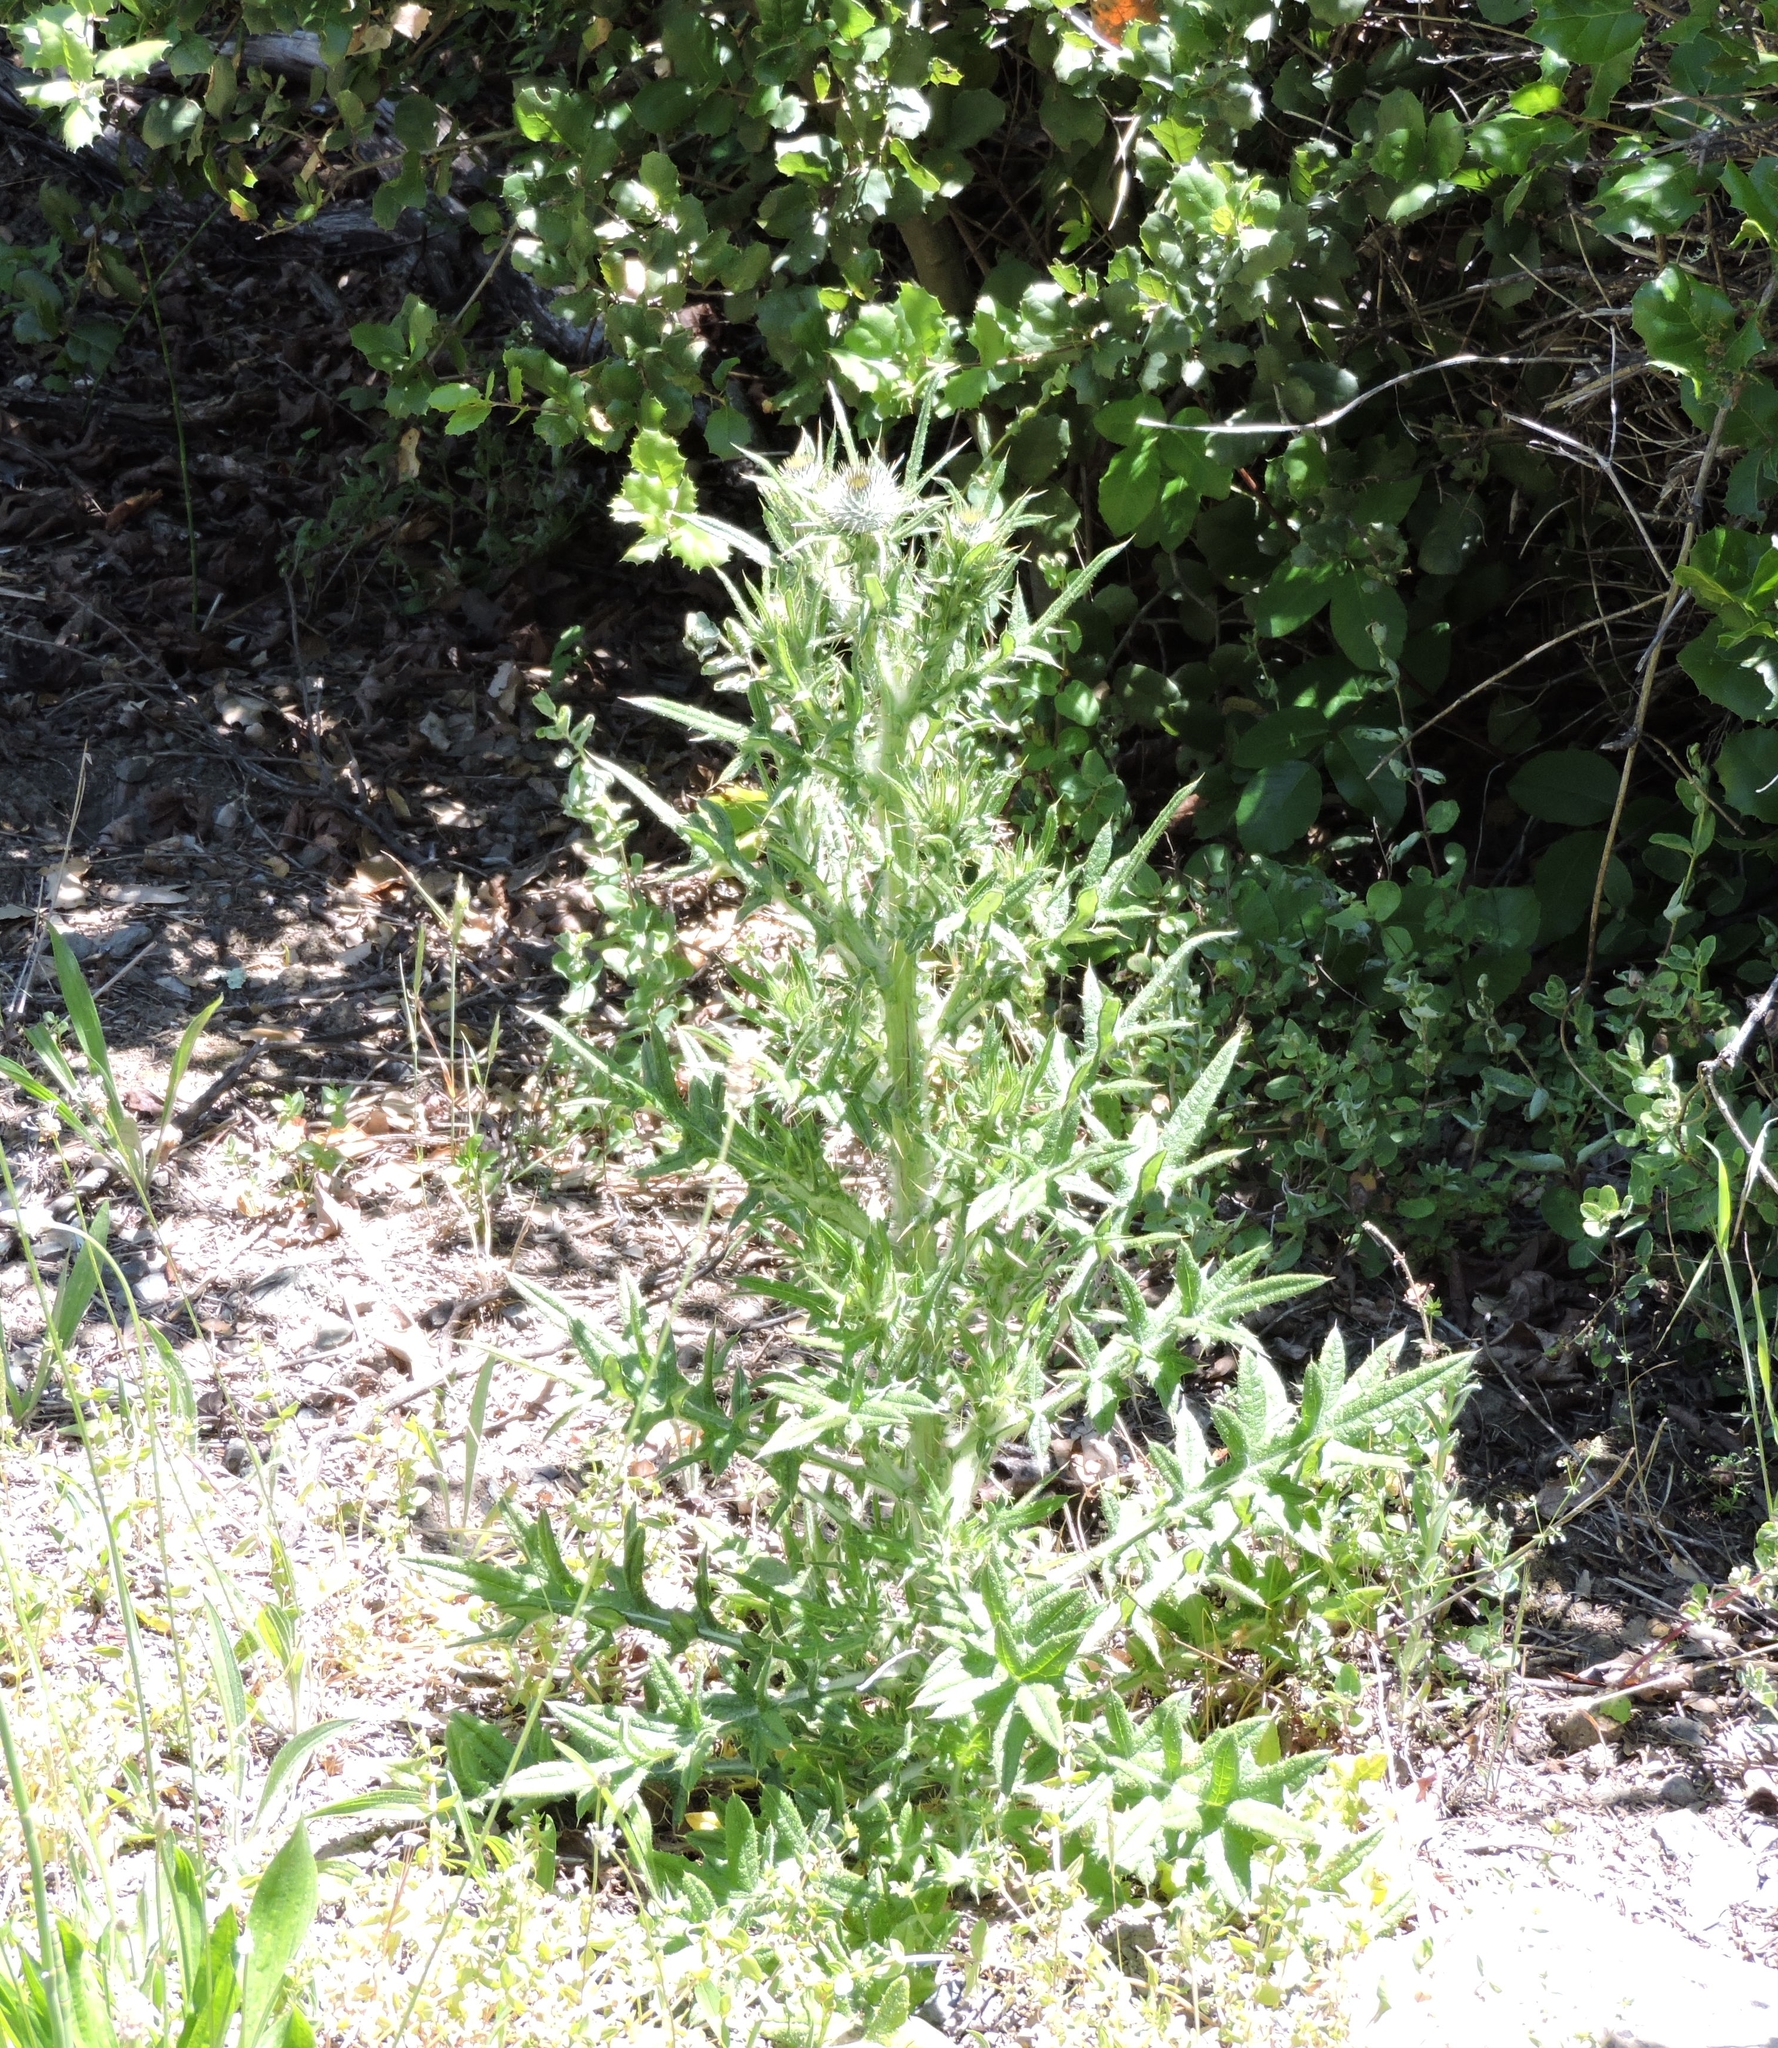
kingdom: Plantae
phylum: Tracheophyta
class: Magnoliopsida
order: Asterales
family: Asteraceae
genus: Cirsium
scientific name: Cirsium vulgare
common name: Bull thistle
